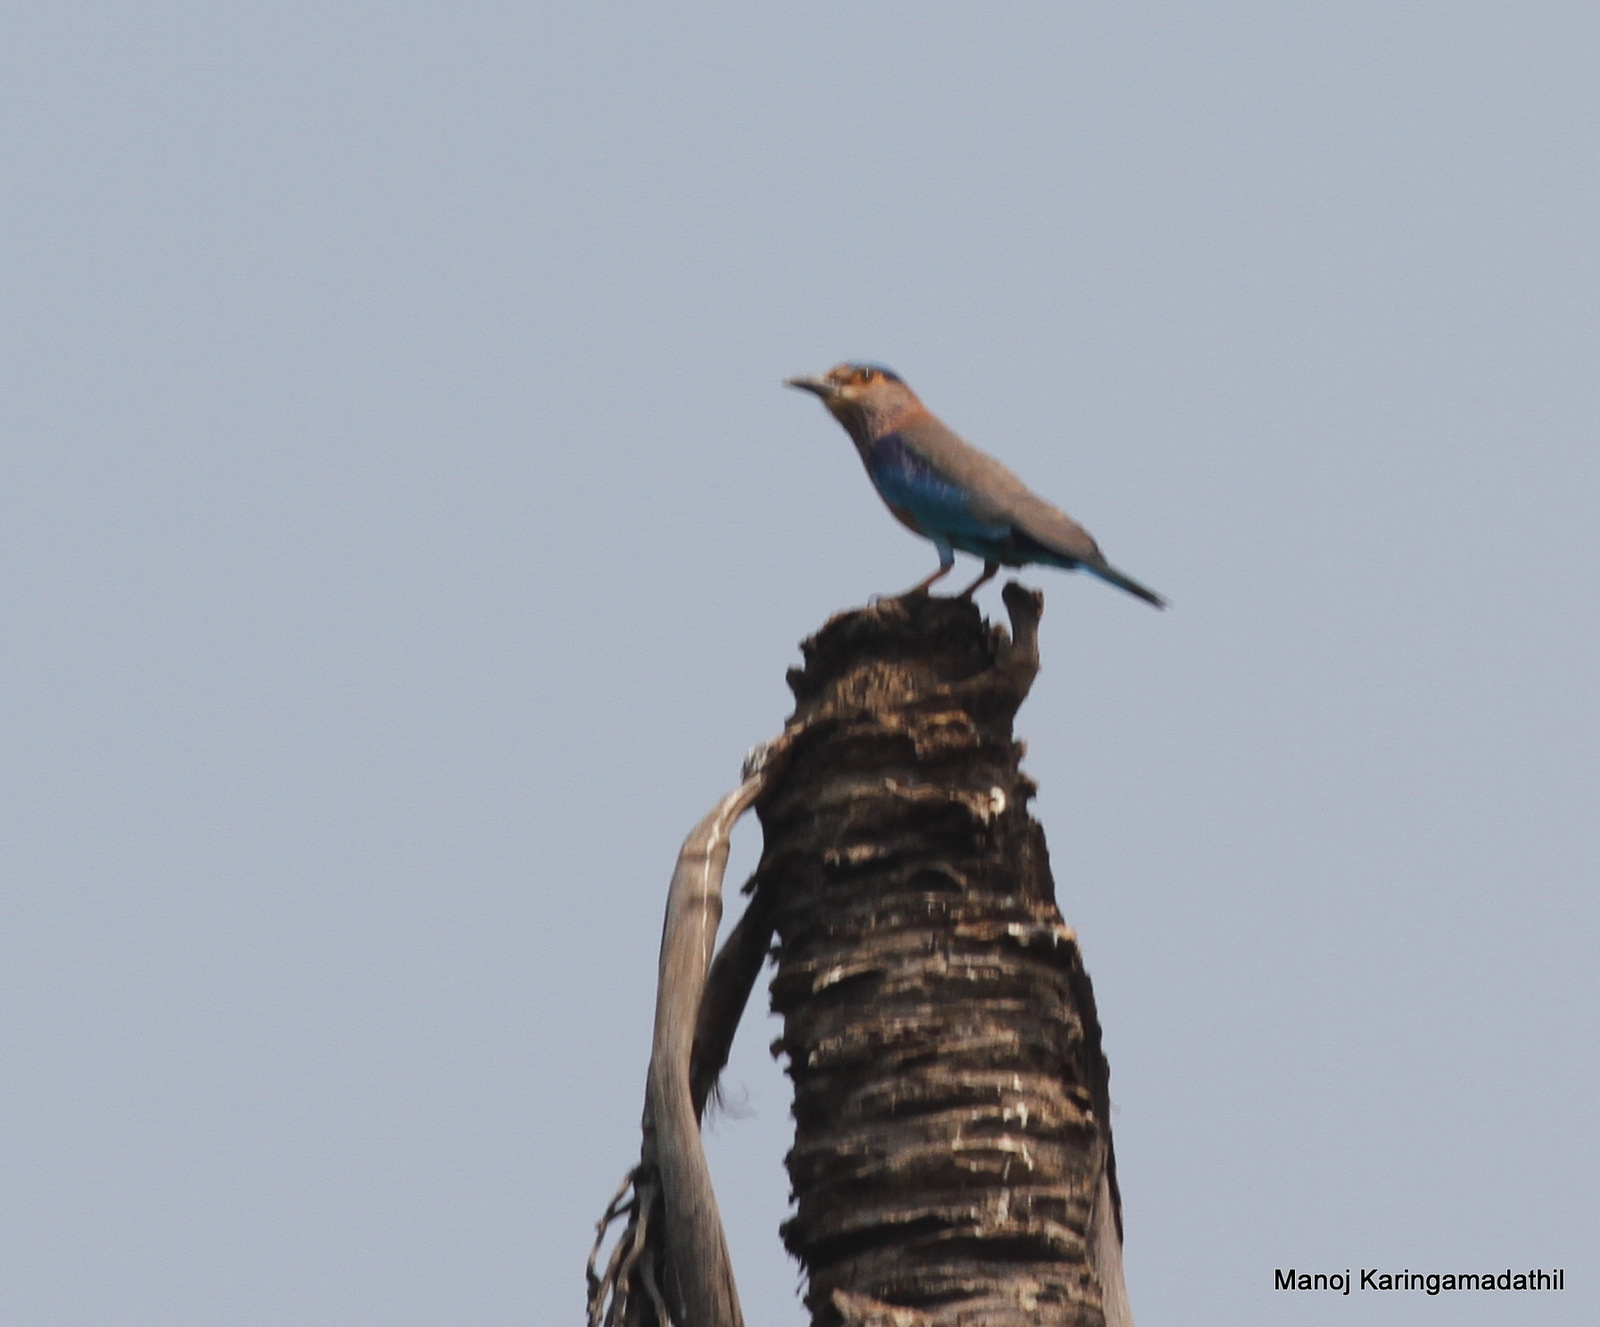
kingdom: Animalia
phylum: Chordata
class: Aves
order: Coraciiformes
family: Coraciidae
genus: Coracias
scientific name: Coracias benghalensis
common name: Indian roller
